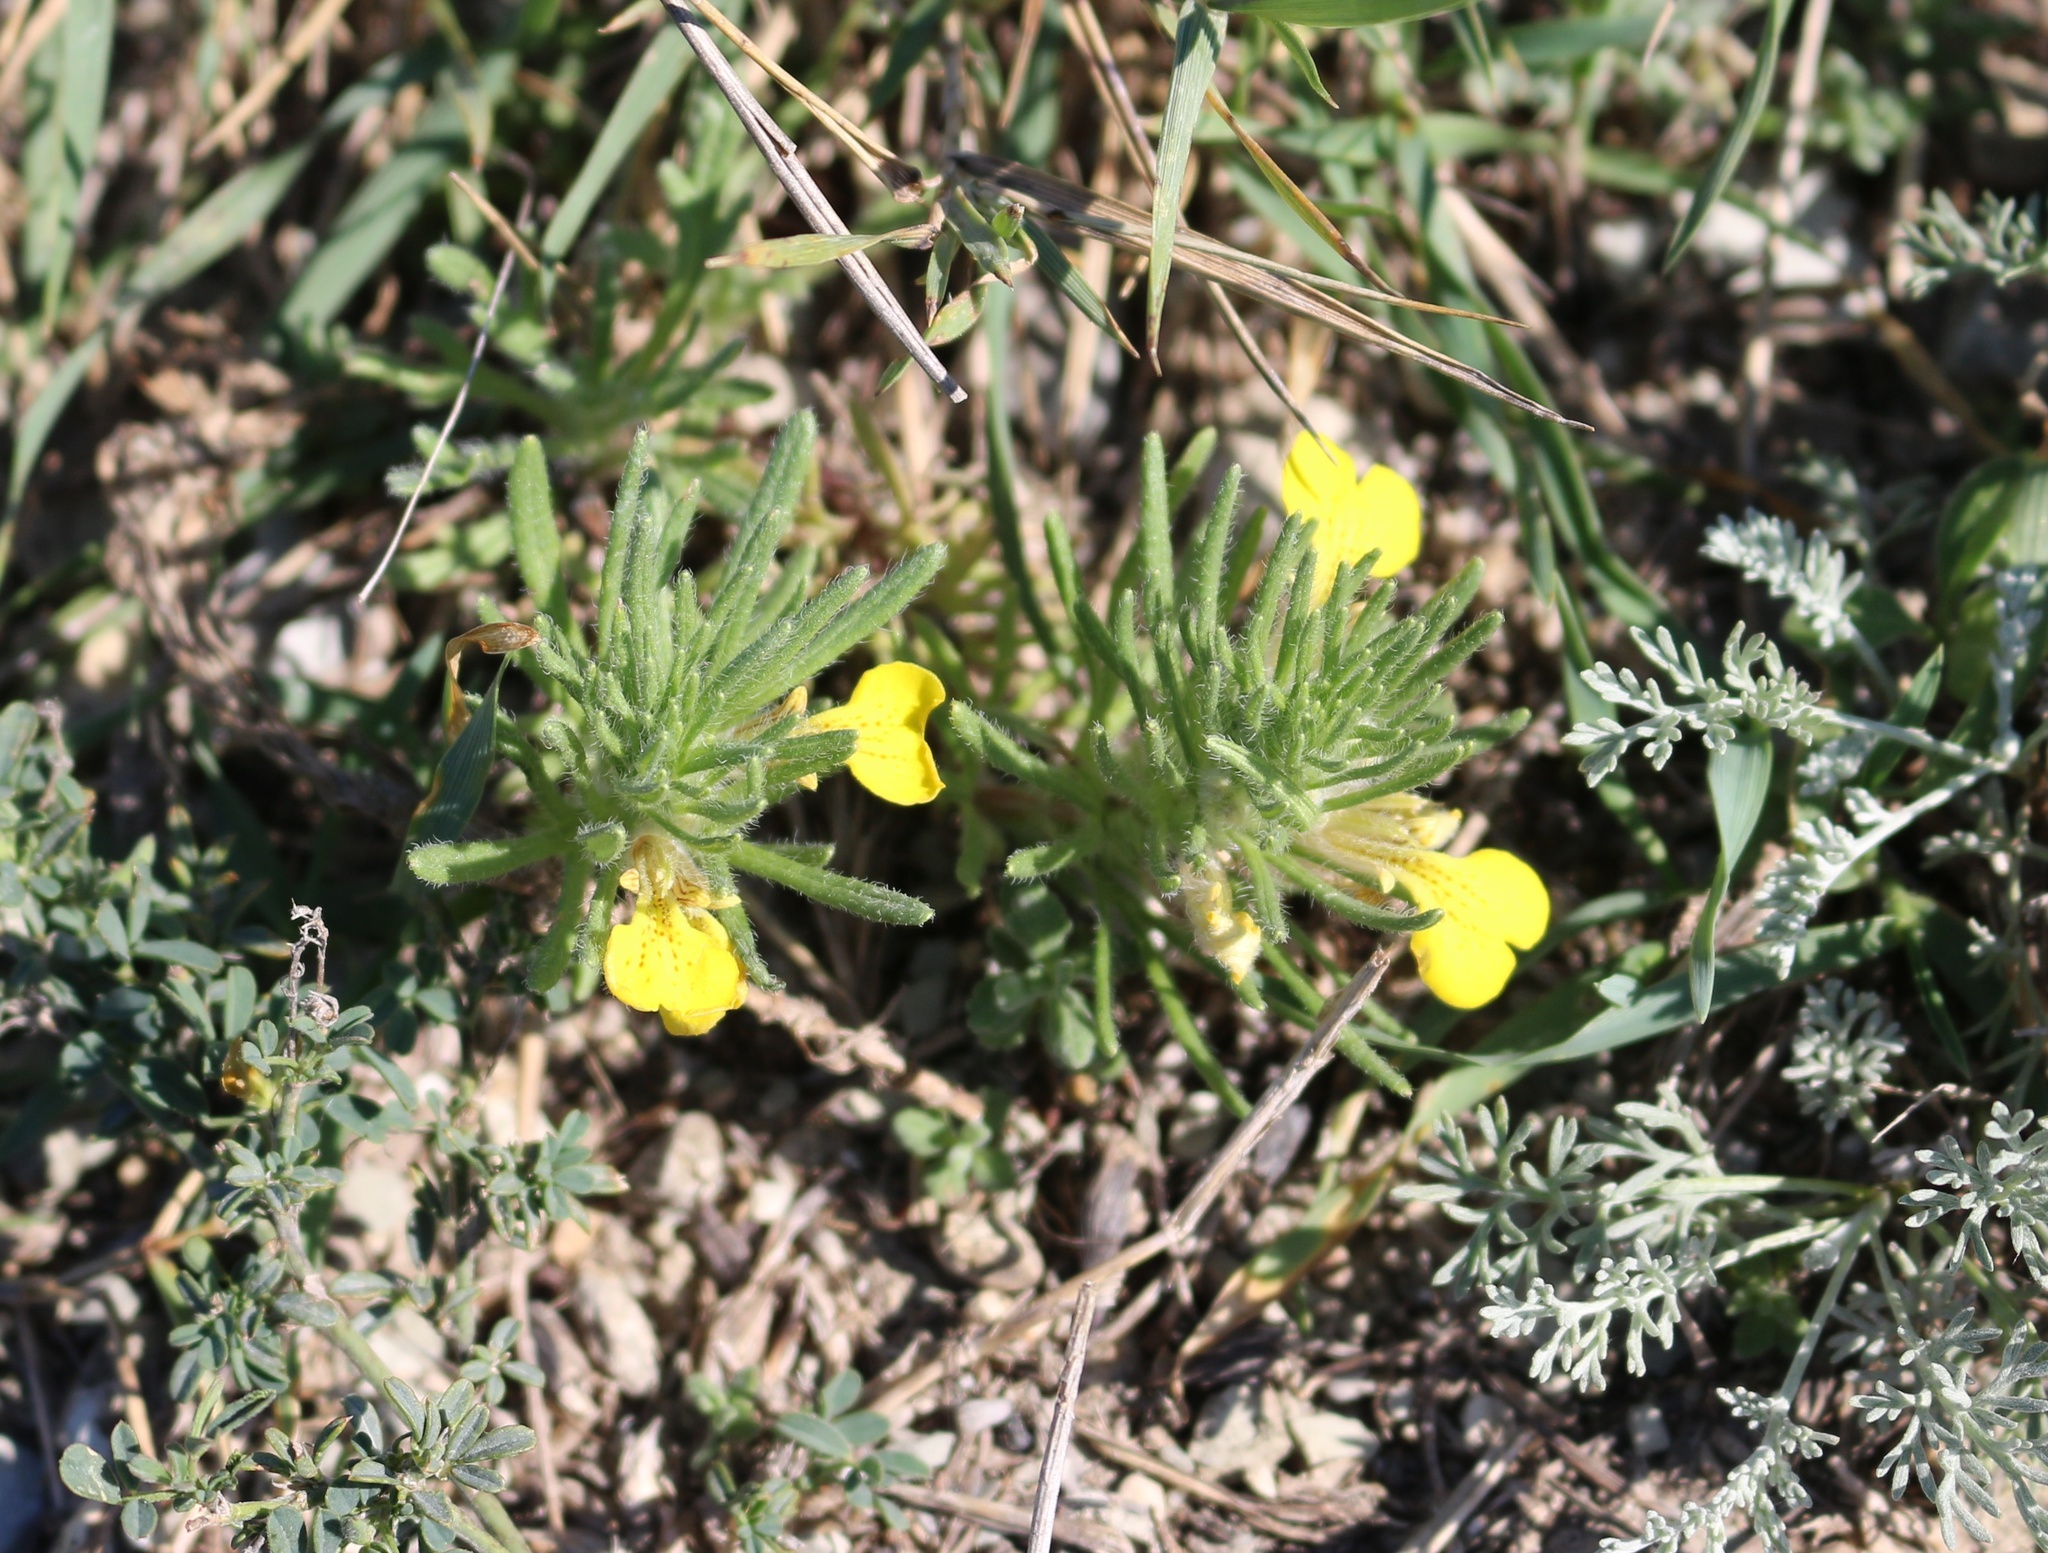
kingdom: Plantae
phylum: Tracheophyta
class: Magnoliopsida
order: Lamiales
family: Lamiaceae
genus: Ajuga
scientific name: Ajuga chamaepitys
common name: Ground-pine
